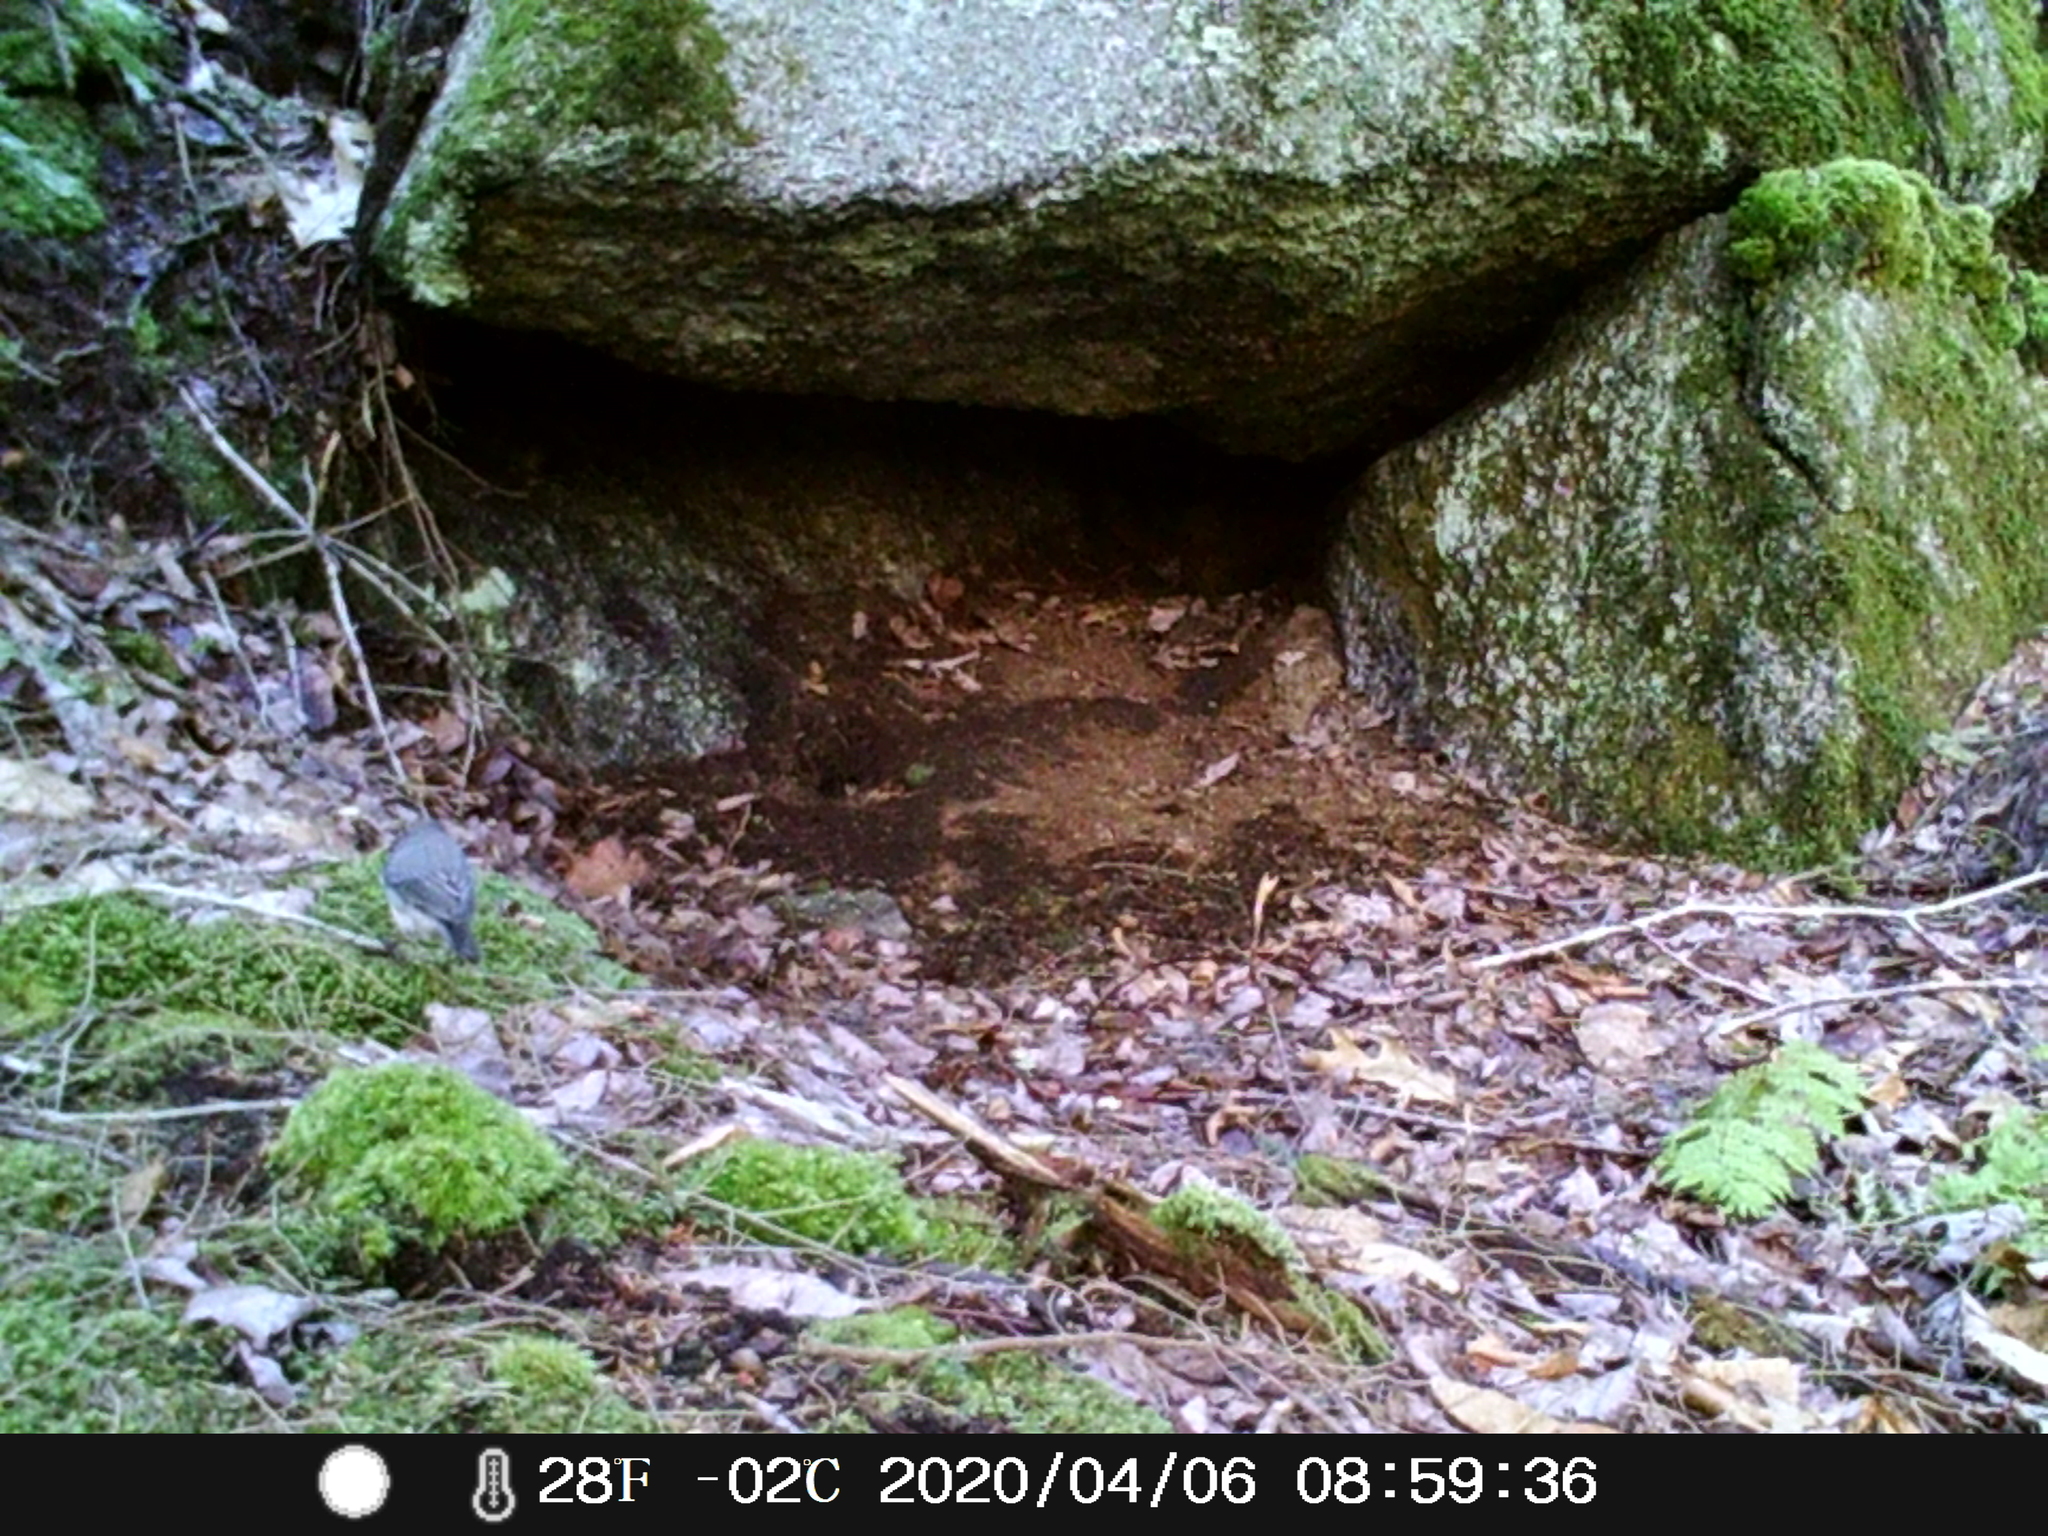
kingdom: Animalia
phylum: Chordata
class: Aves
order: Passeriformes
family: Passerellidae
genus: Junco
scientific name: Junco hyemalis
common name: Dark-eyed junco
